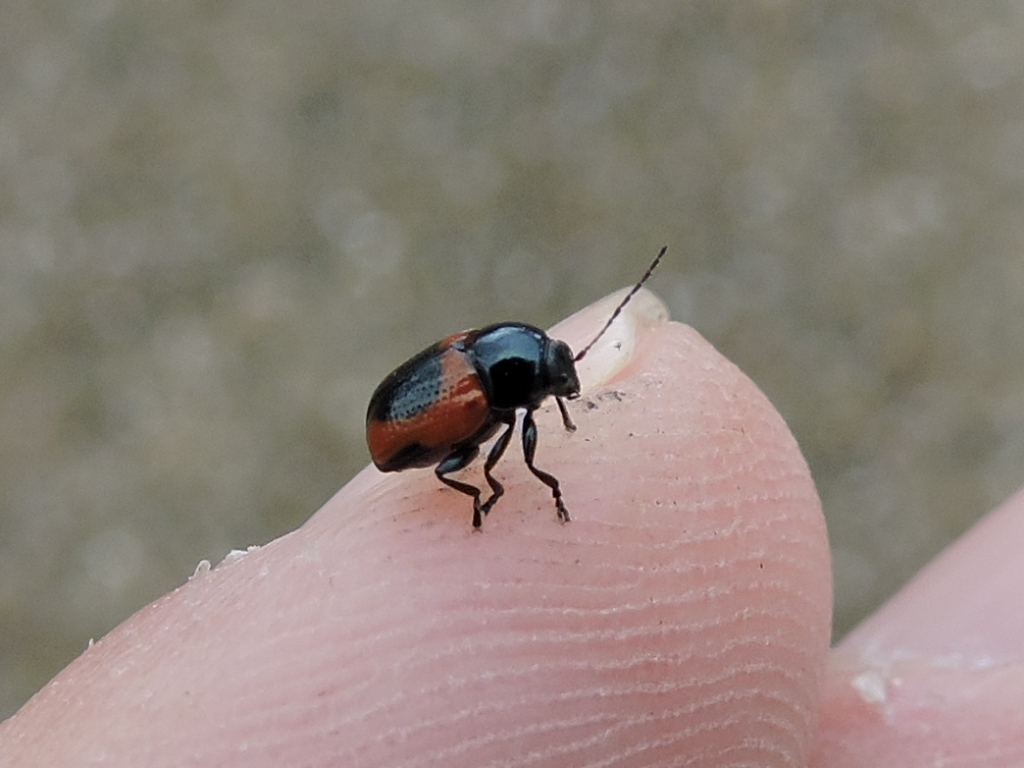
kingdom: Animalia
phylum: Arthropoda
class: Insecta
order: Coleoptera
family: Chrysomelidae
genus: Cryptocephalus
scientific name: Cryptocephalus notatus
